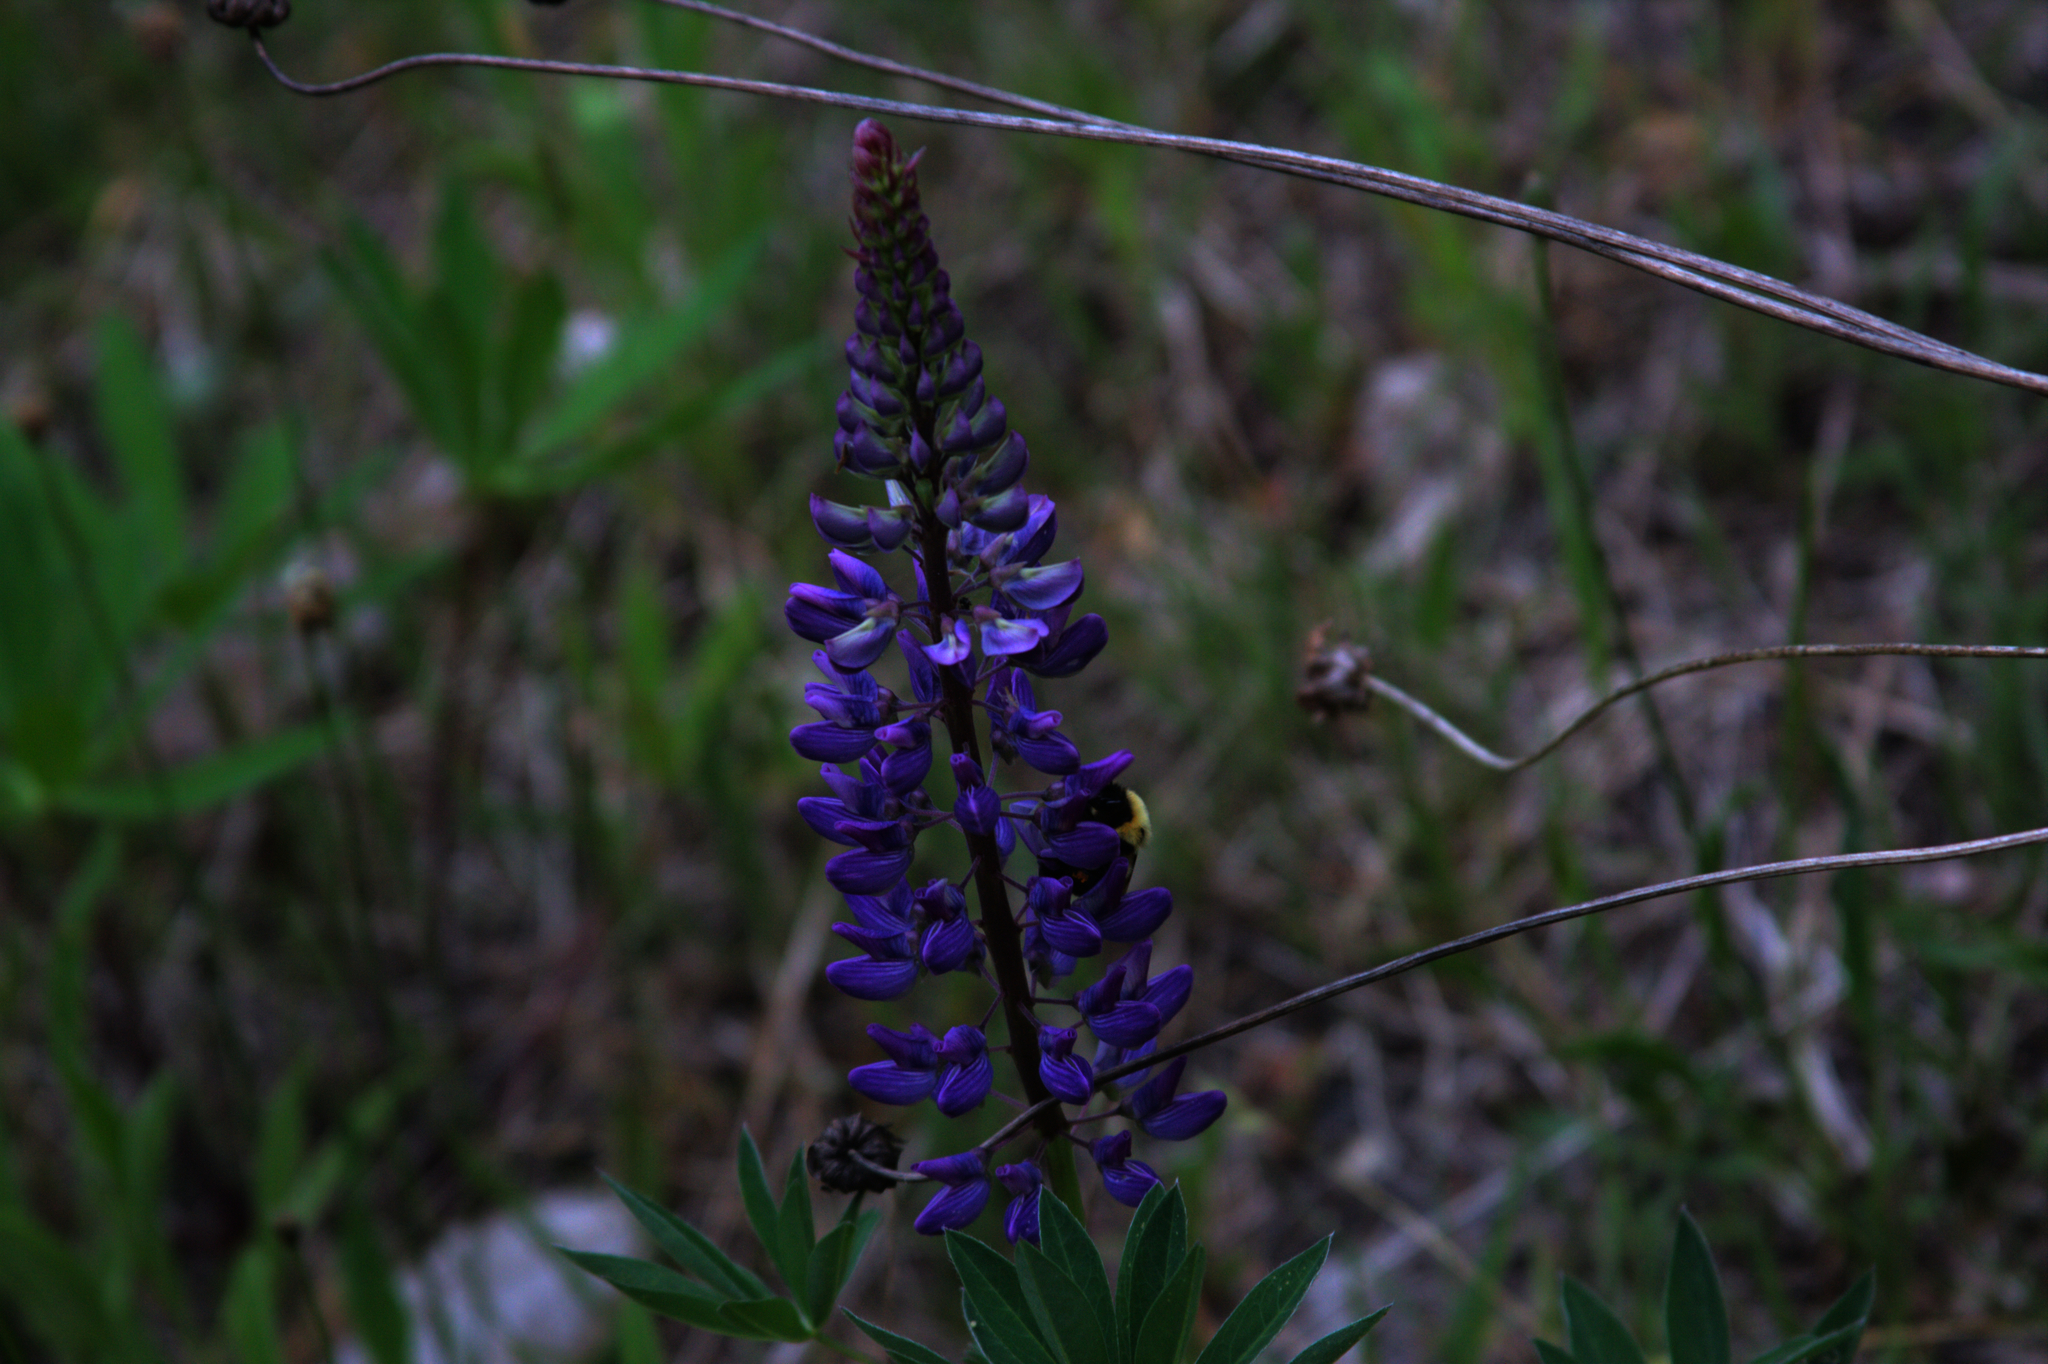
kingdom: Plantae
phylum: Tracheophyta
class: Magnoliopsida
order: Fabales
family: Fabaceae
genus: Lupinus
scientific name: Lupinus polyphyllus
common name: Garden lupin
